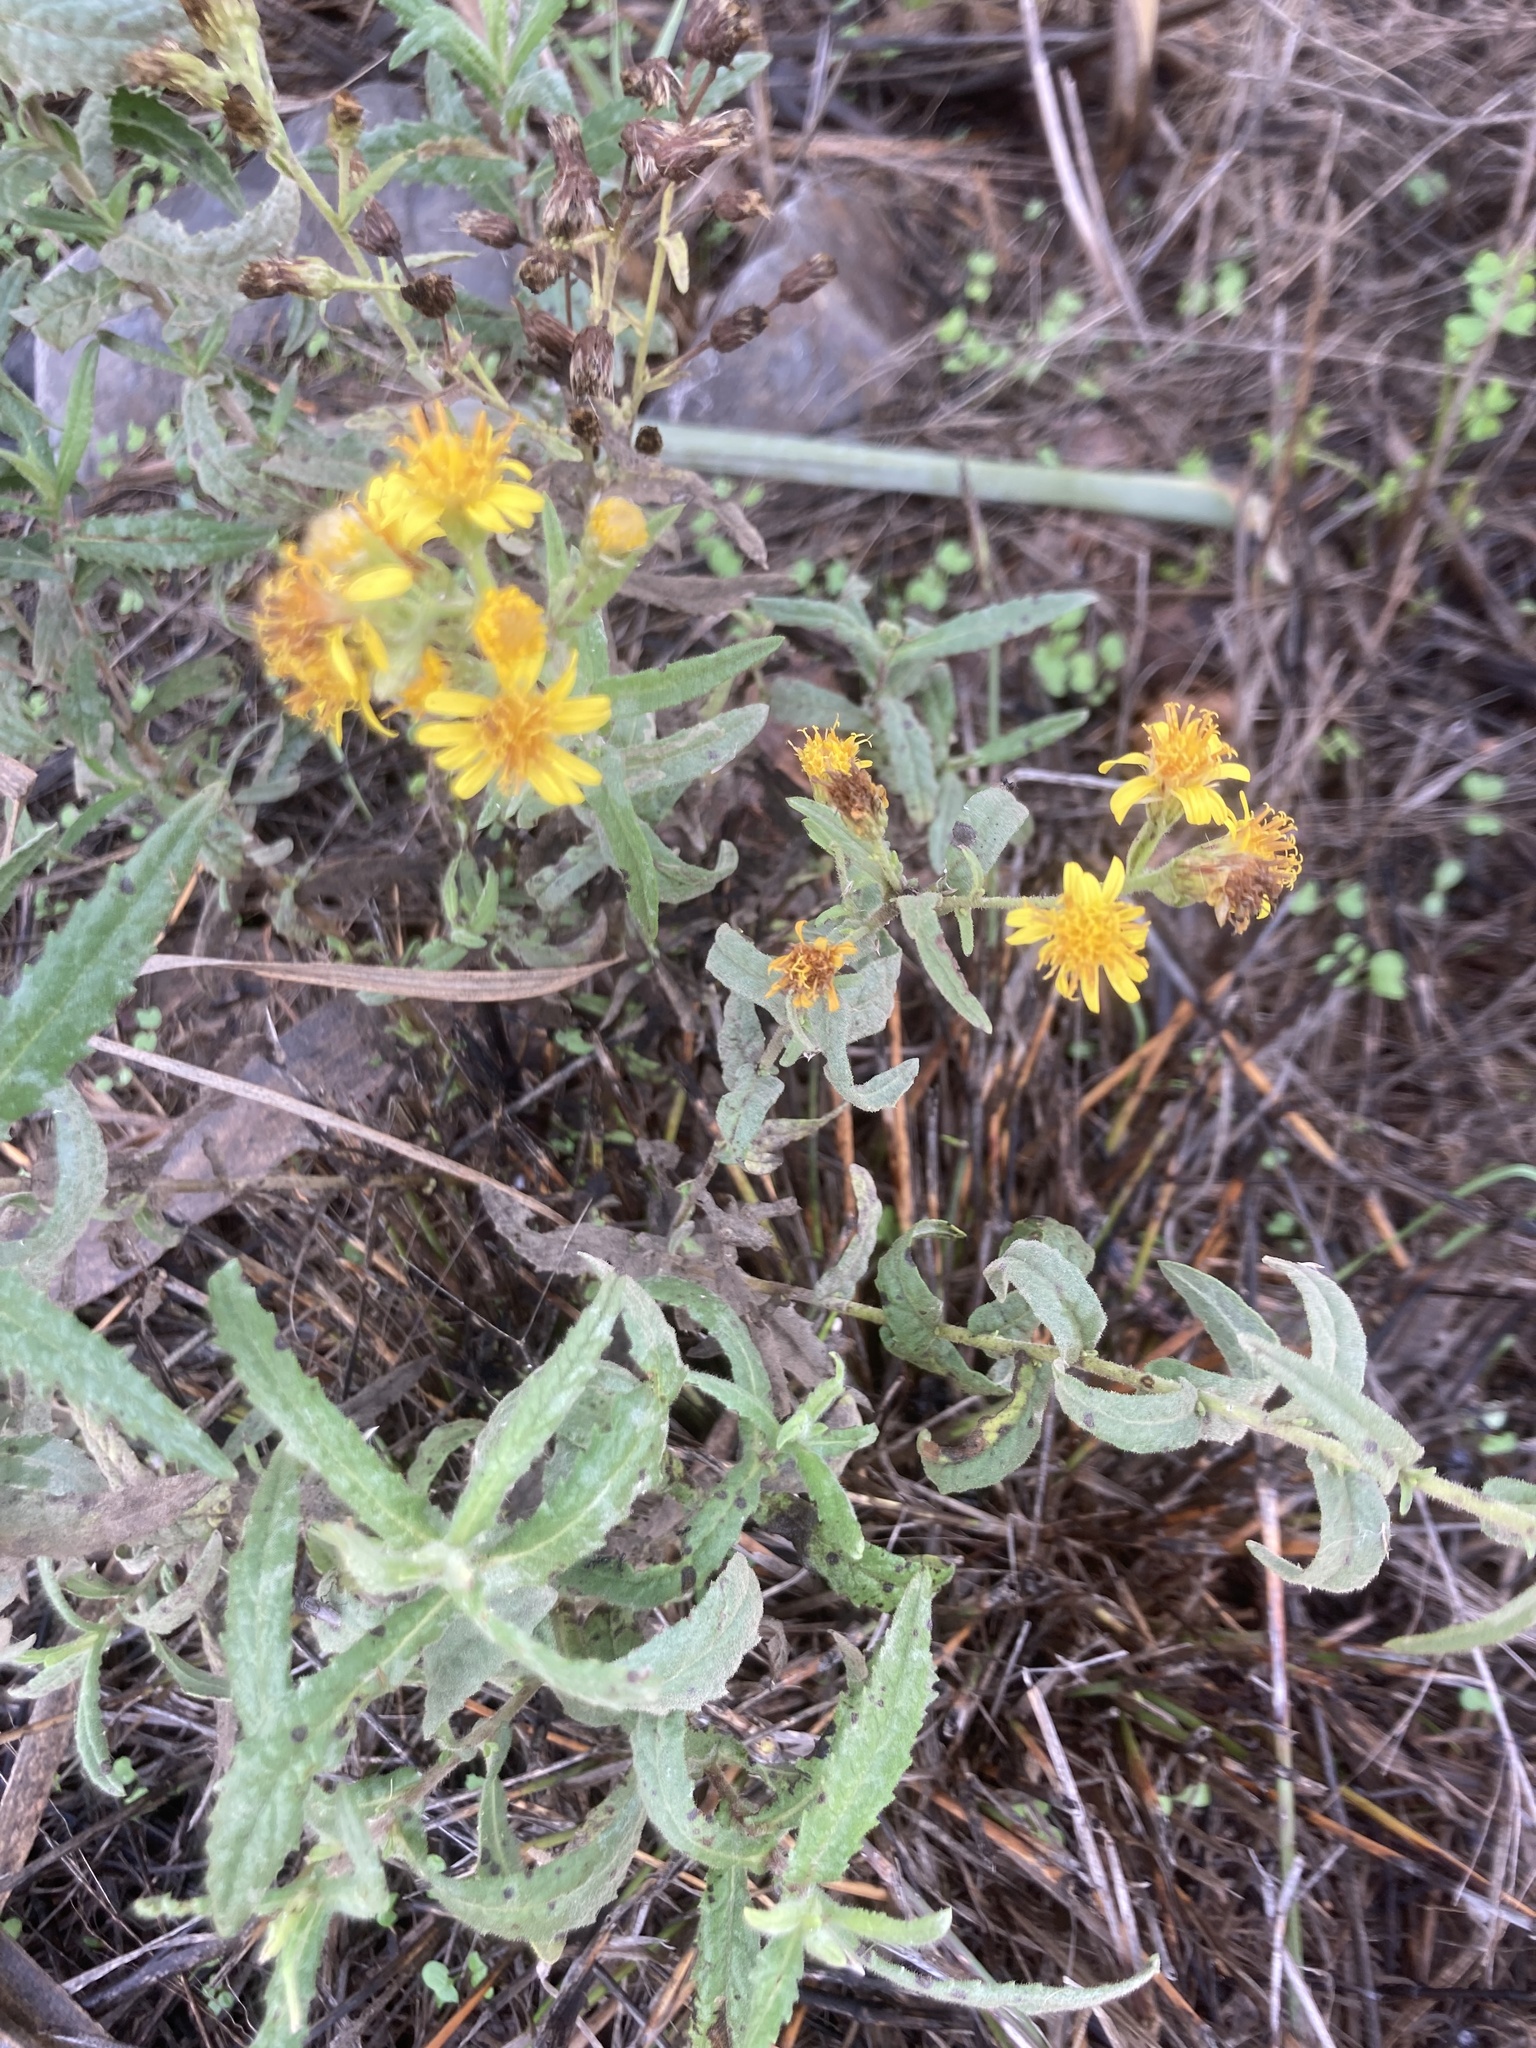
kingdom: Plantae
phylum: Tracheophyta
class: Magnoliopsida
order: Asterales
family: Asteraceae
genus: Dittrichia
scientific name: Dittrichia viscosa
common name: Woody fleabane
